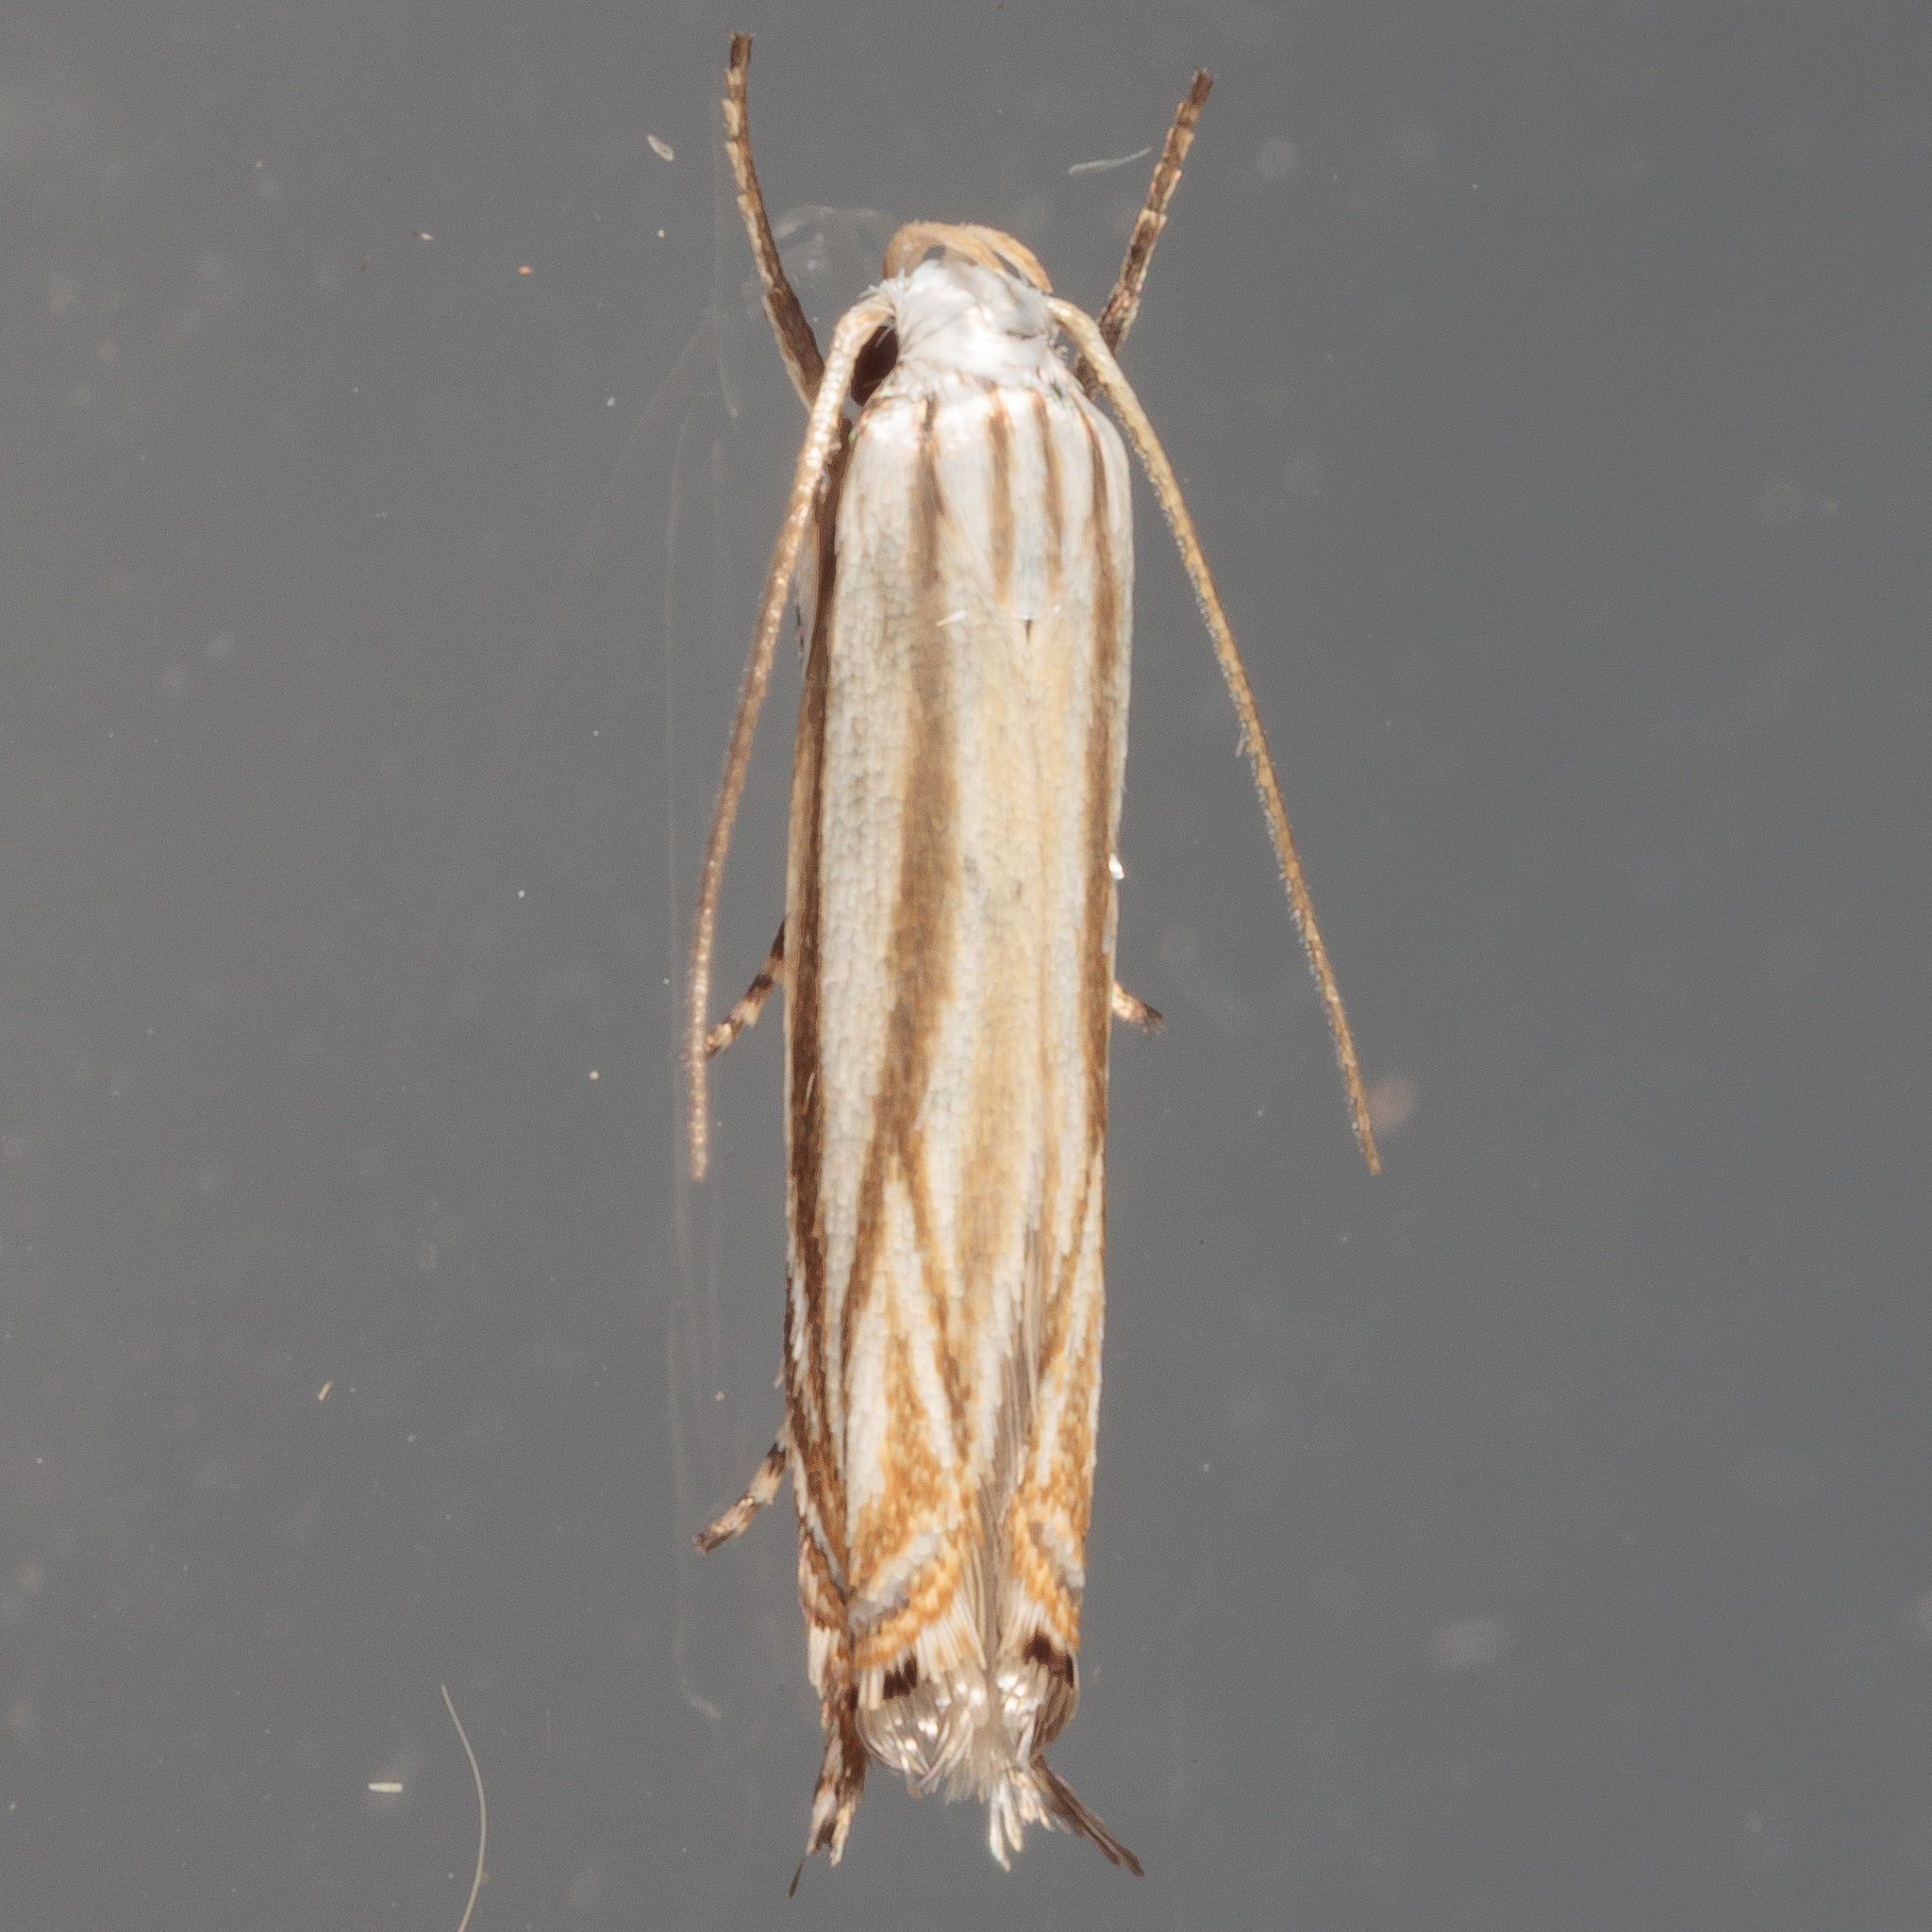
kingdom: Animalia
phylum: Arthropoda
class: Insecta
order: Lepidoptera
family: Gelechiidae
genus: Polyhymno
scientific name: Polyhymno luteostrigella
